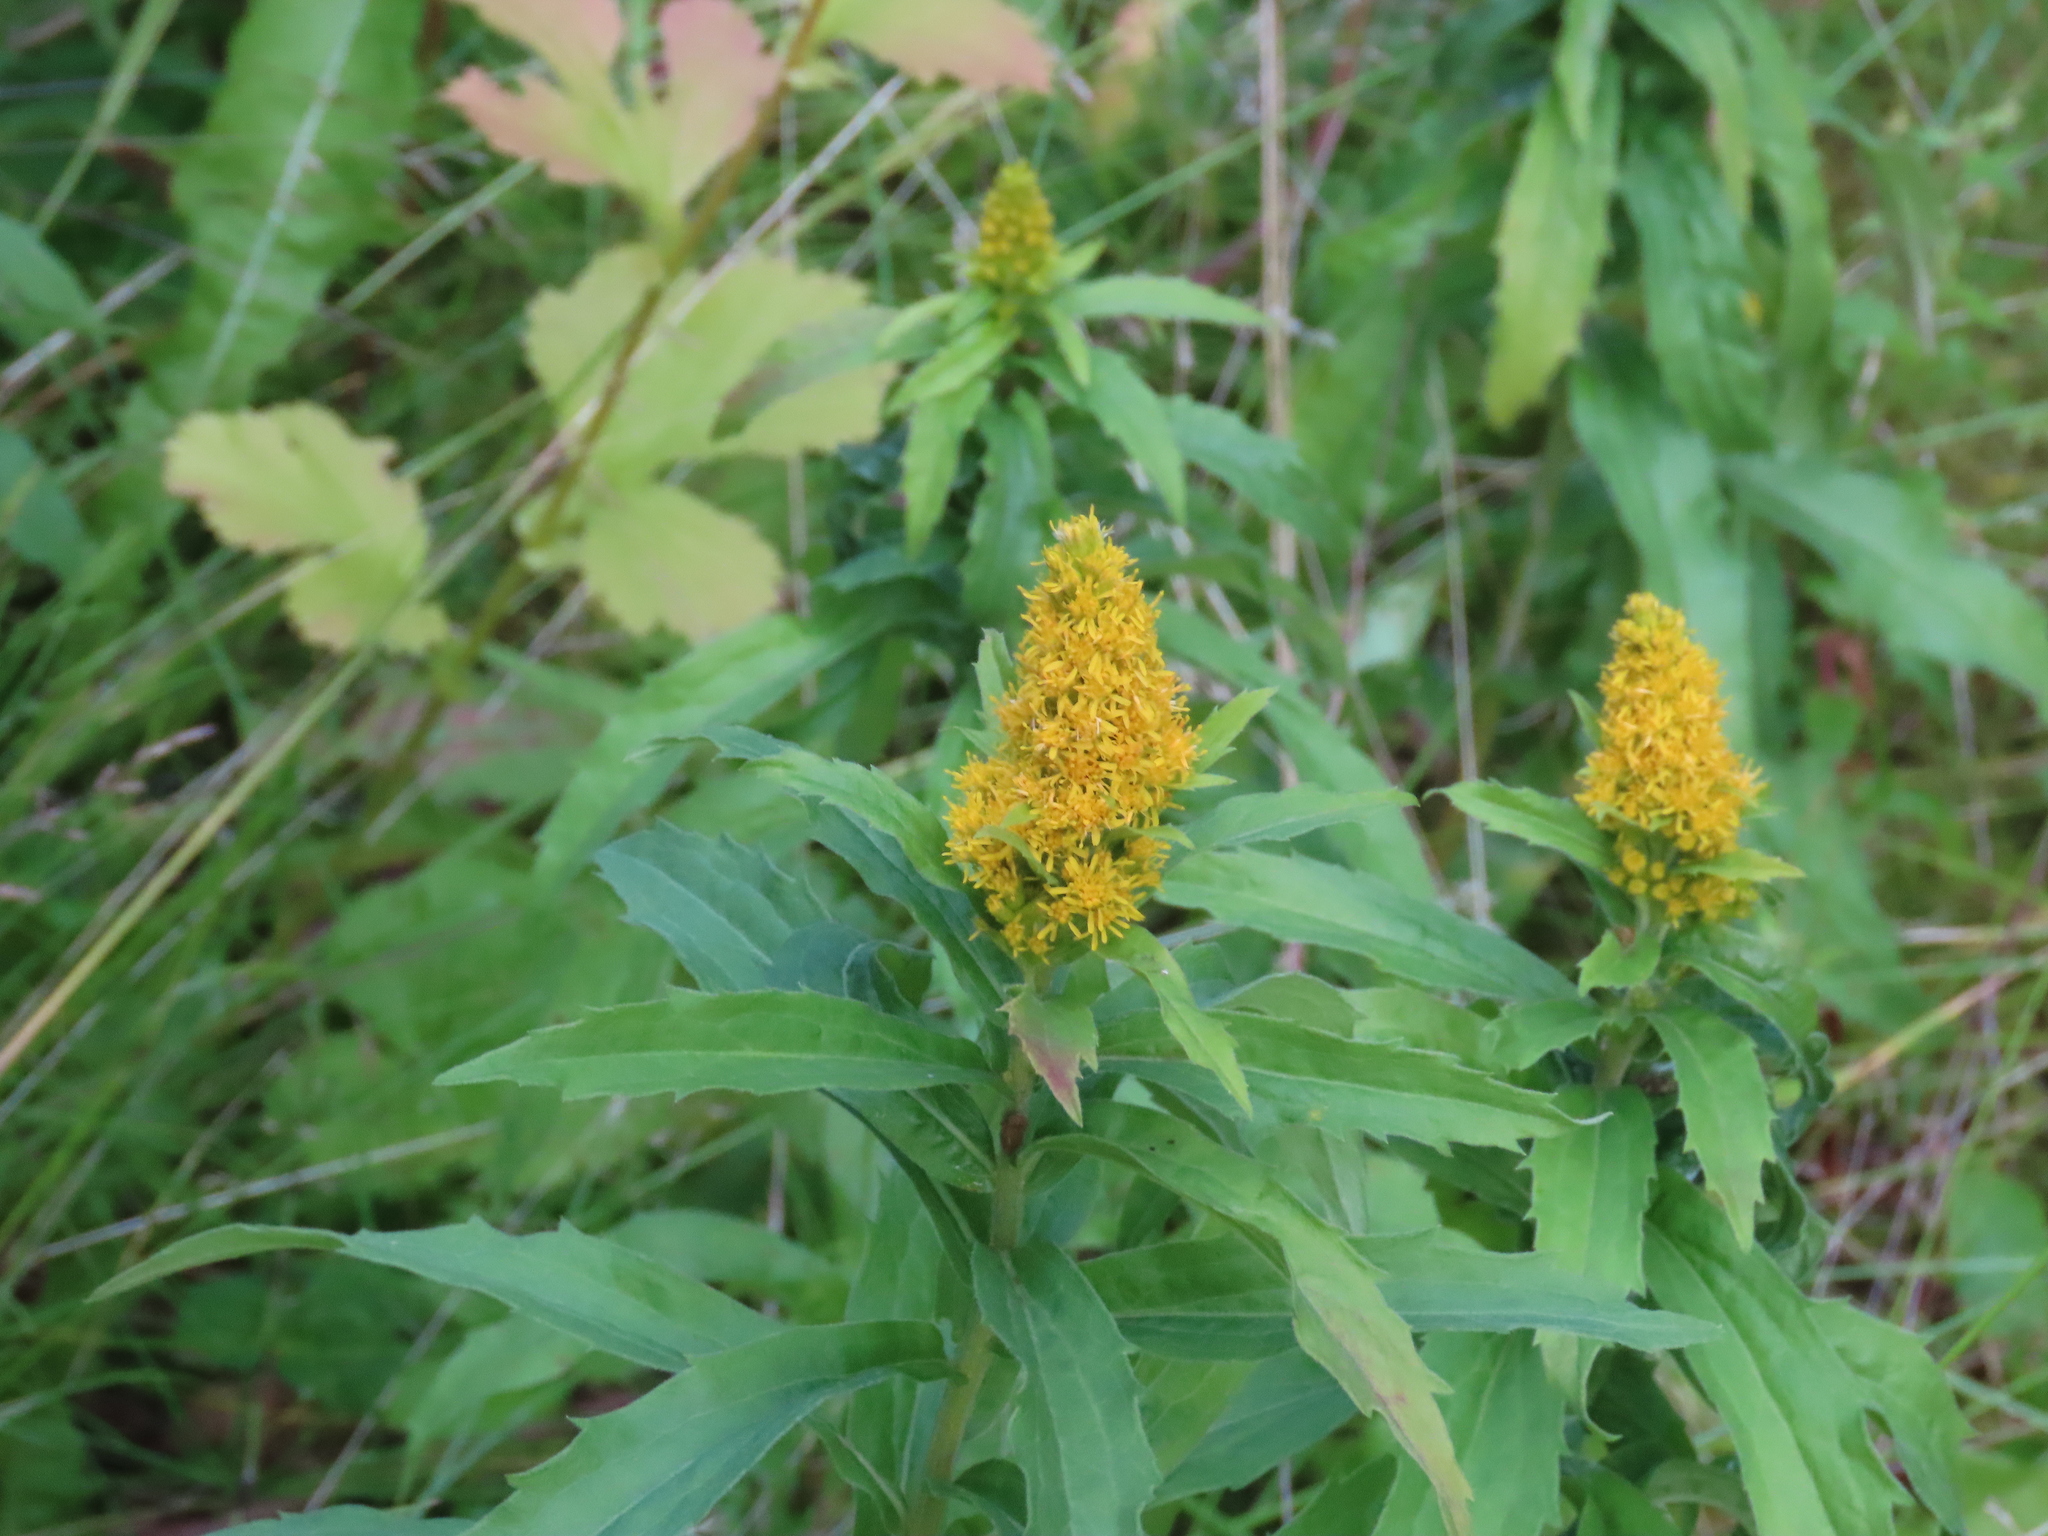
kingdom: Plantae
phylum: Tracheophyta
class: Magnoliopsida
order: Asterales
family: Asteraceae
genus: Solidago
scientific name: Solidago lepida
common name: Western canada goldenrod
